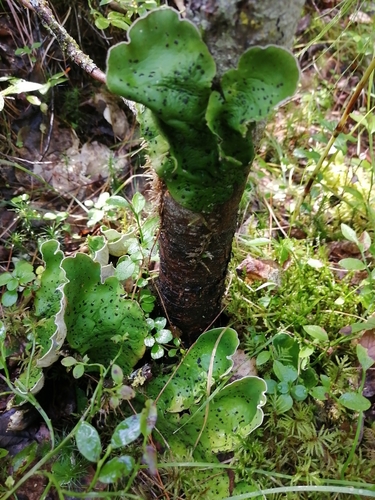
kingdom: Fungi
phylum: Ascomycota
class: Lecanoromycetes
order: Peltigerales
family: Peltigeraceae
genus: Peltigera
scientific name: Peltigera aphthosa
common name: Common freckle pelt lichen
